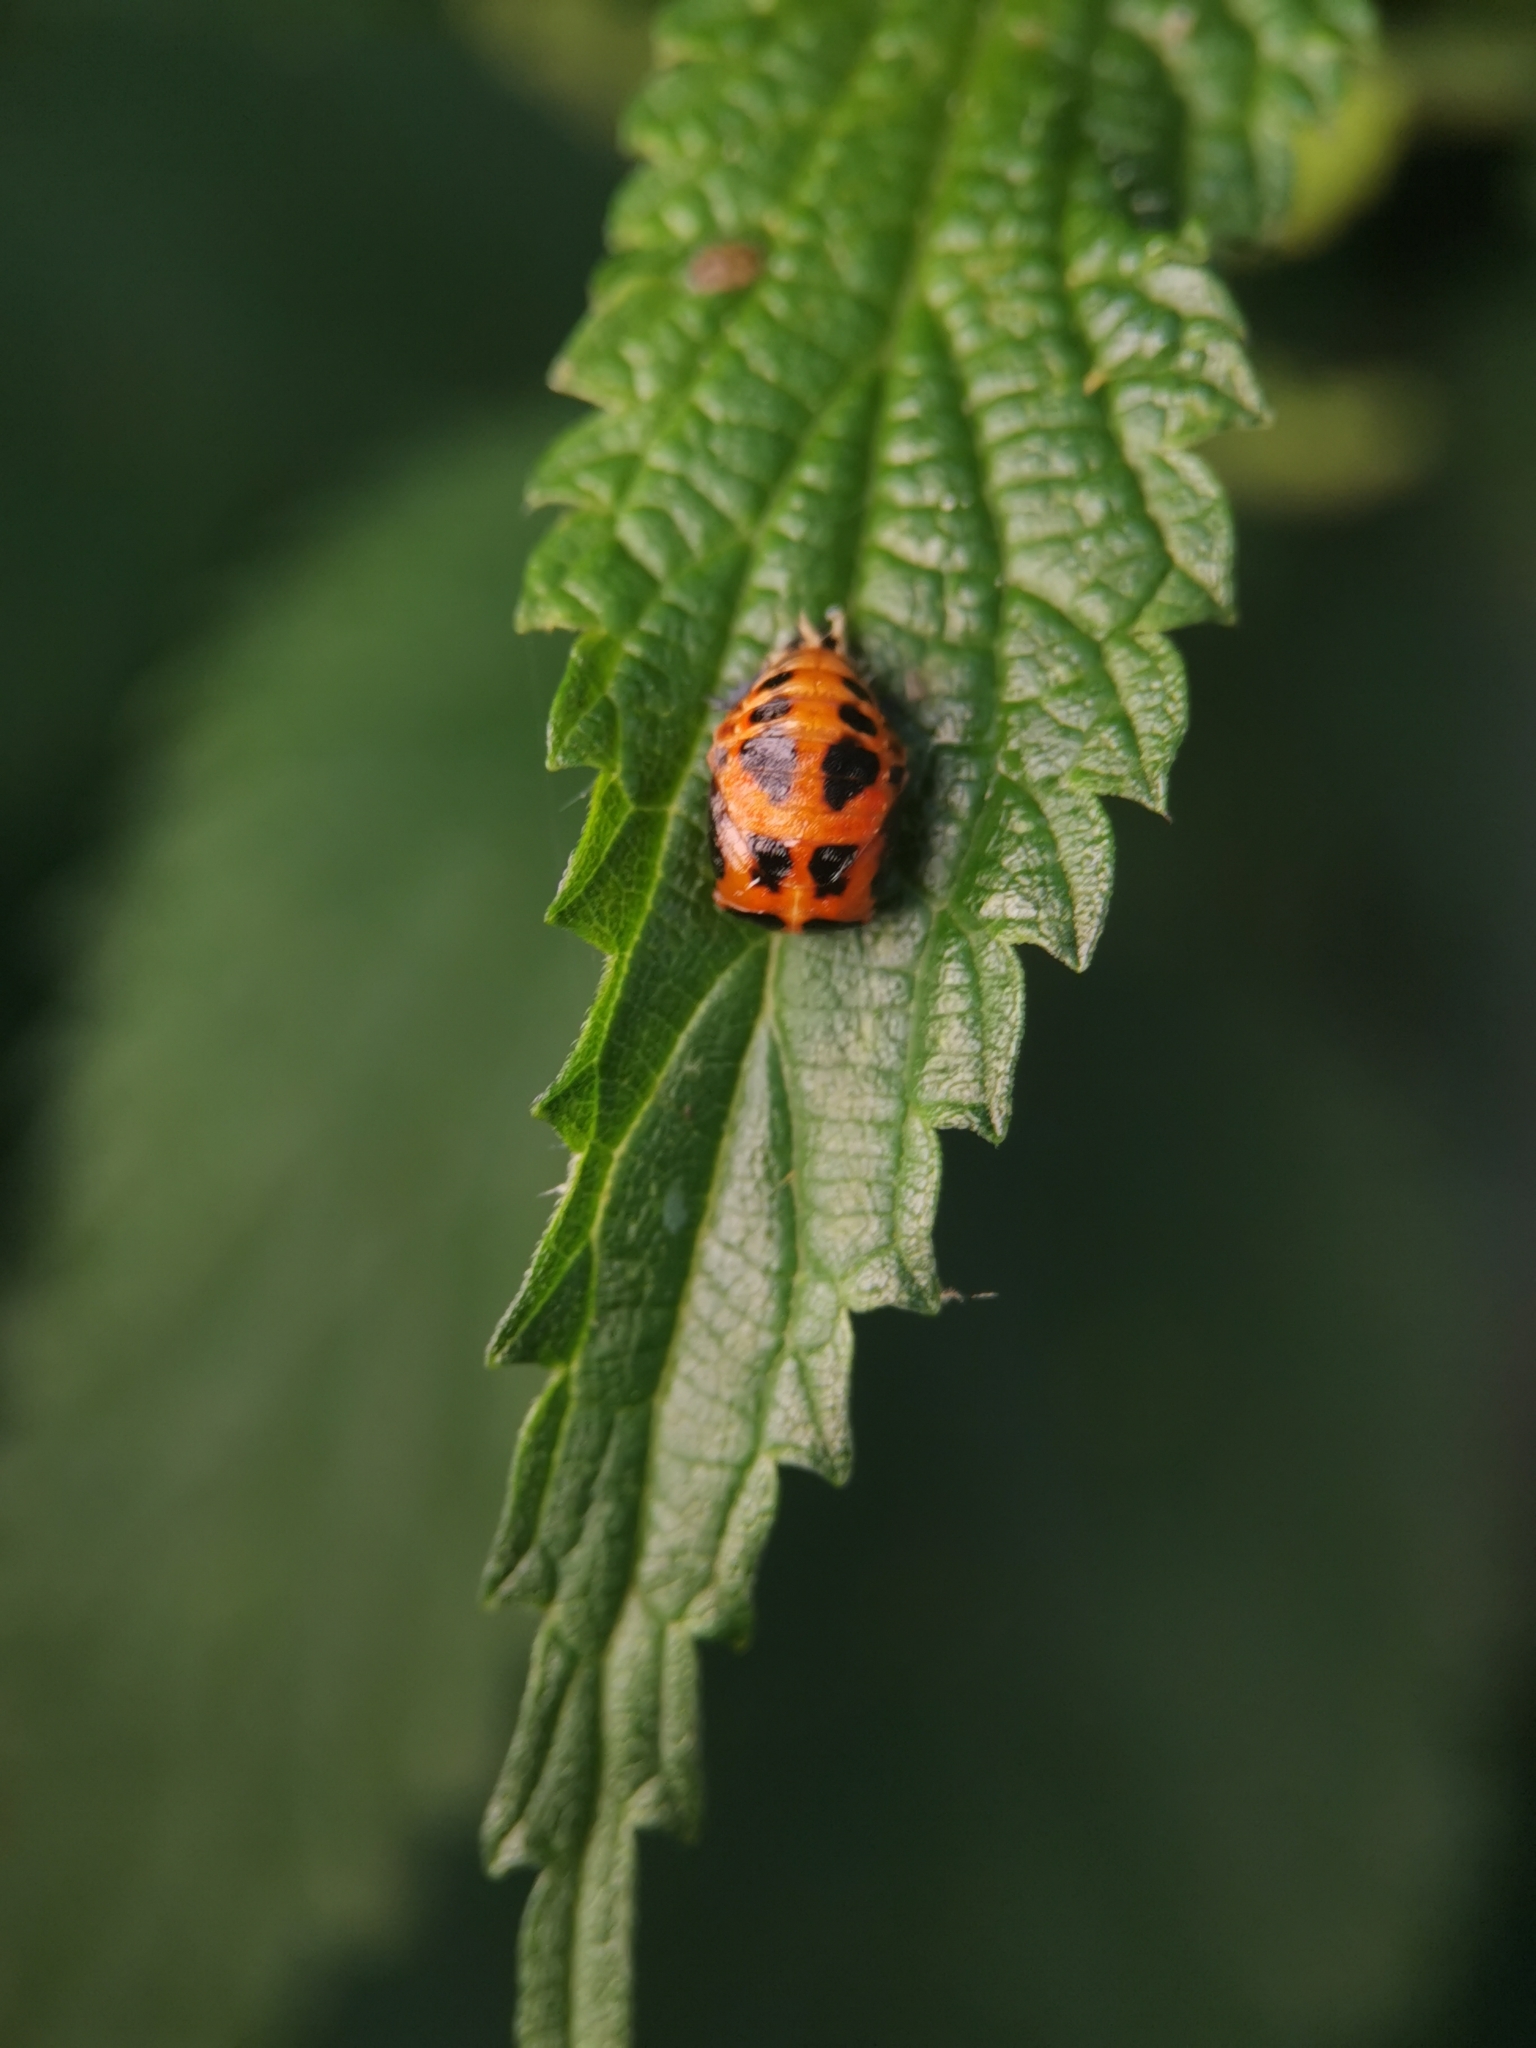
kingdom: Animalia
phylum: Arthropoda
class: Insecta
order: Coleoptera
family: Coccinellidae
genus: Harmonia
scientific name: Harmonia axyridis
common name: Harlequin ladybird
